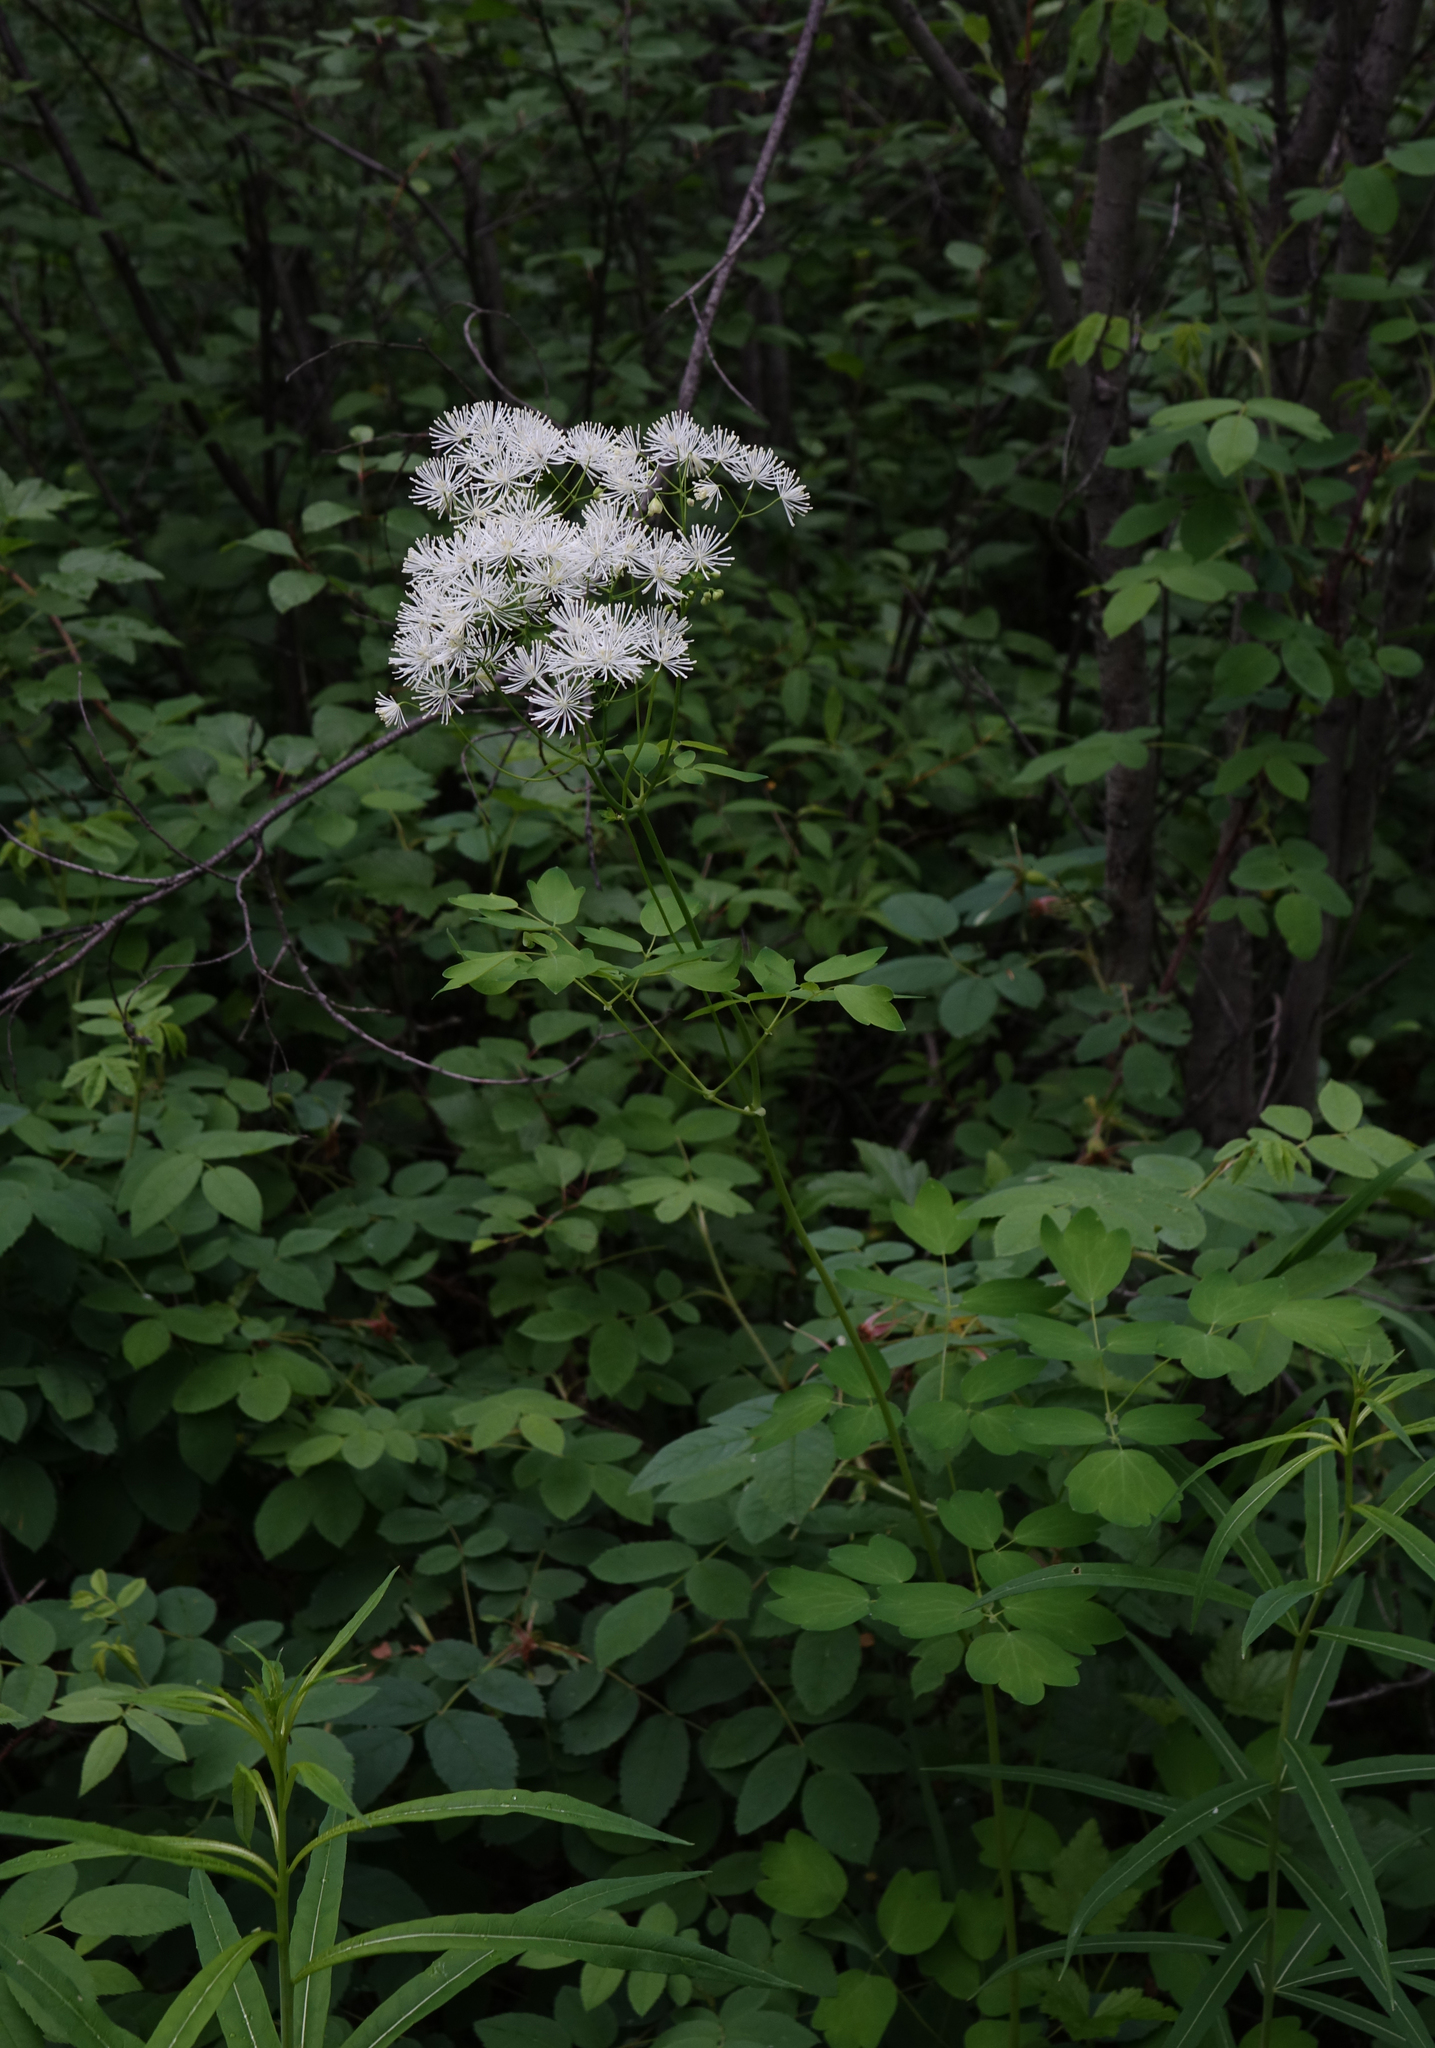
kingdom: Plantae
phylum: Tracheophyta
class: Magnoliopsida
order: Ranunculales
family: Ranunculaceae
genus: Thalictrum
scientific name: Thalictrum aquilegiifolium
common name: French meadow-rue
